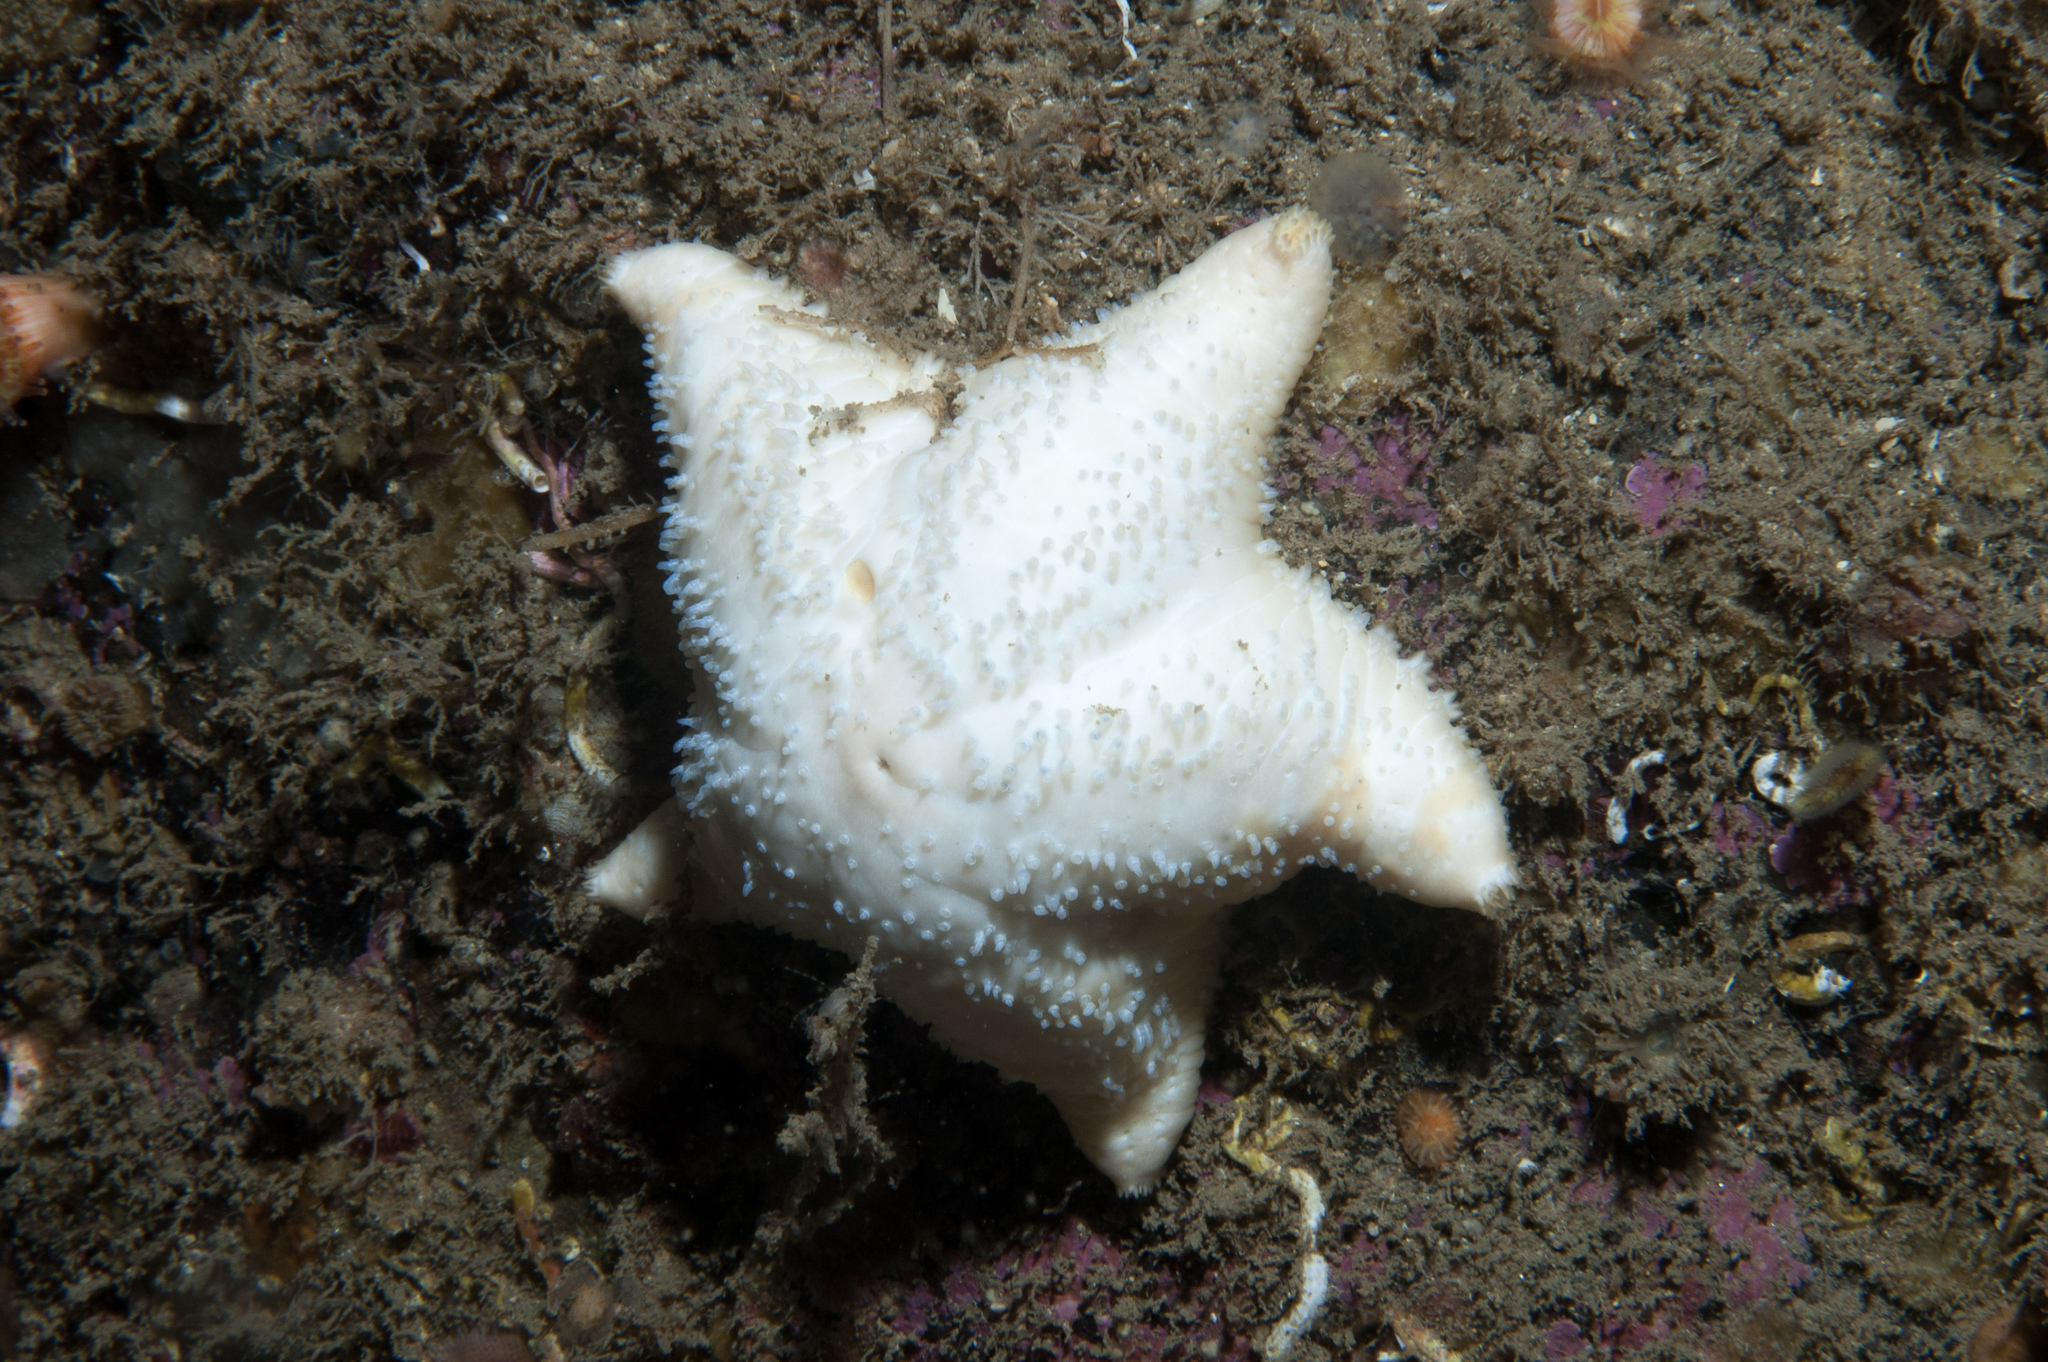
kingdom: Animalia
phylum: Echinodermata
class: Asteroidea
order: Valvatida
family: Poraniidae
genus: Porania
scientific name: Porania pulvillus
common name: Red cushion stat
